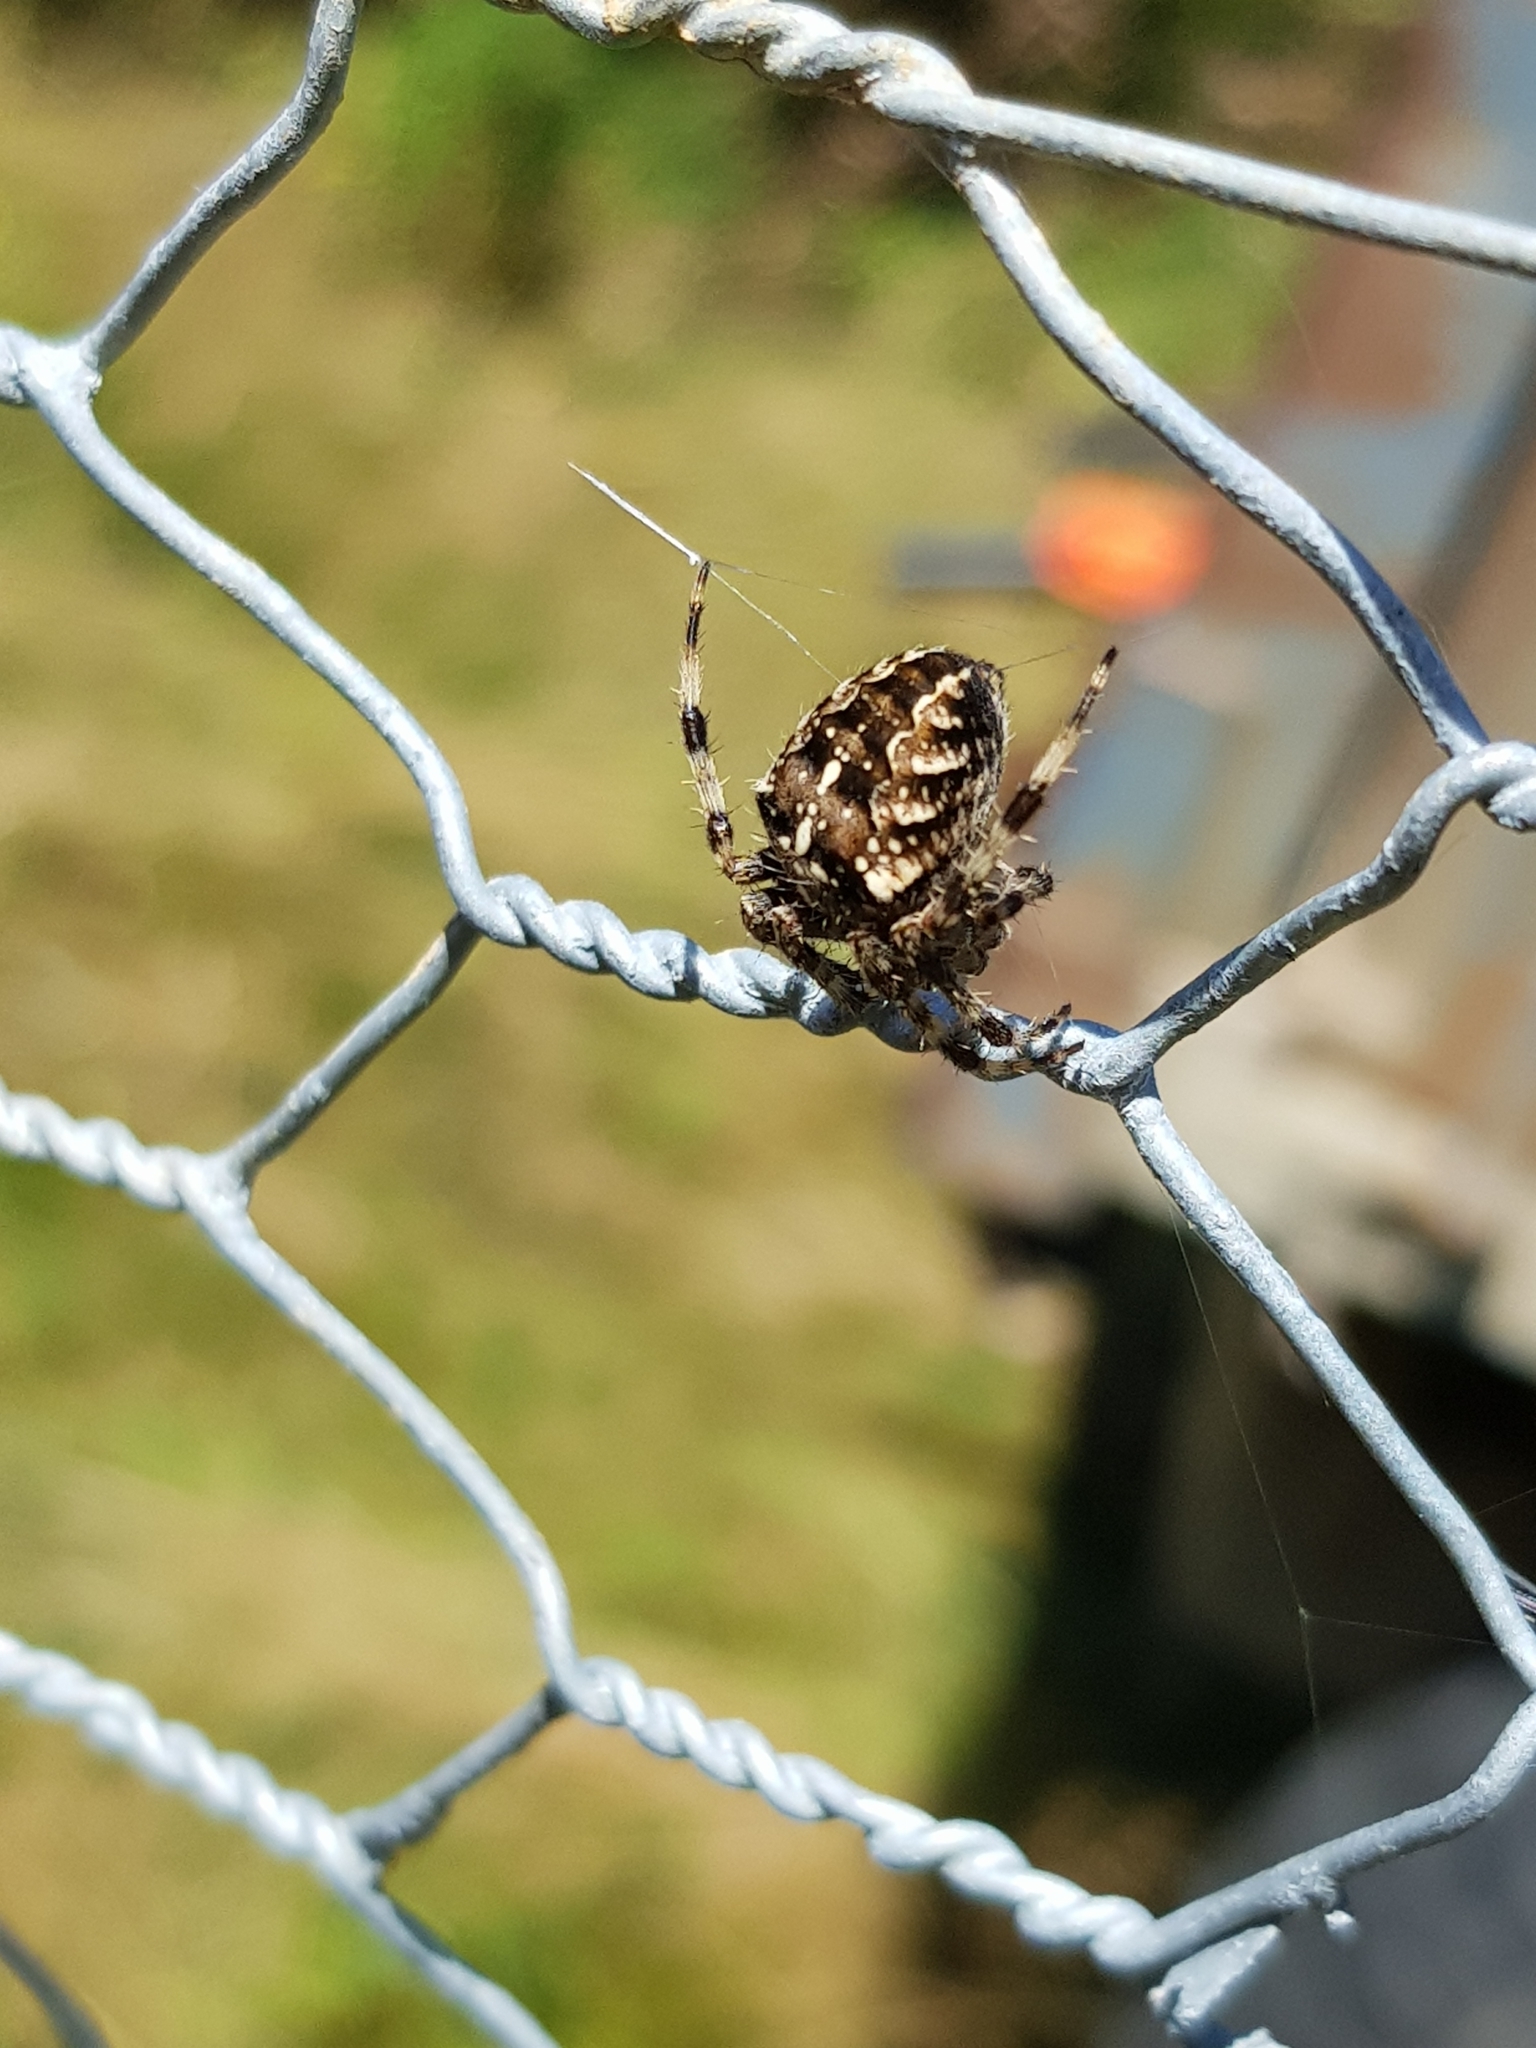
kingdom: Animalia
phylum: Arthropoda
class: Arachnida
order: Araneae
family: Araneidae
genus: Araneus
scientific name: Araneus diadematus
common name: Cross orbweaver
